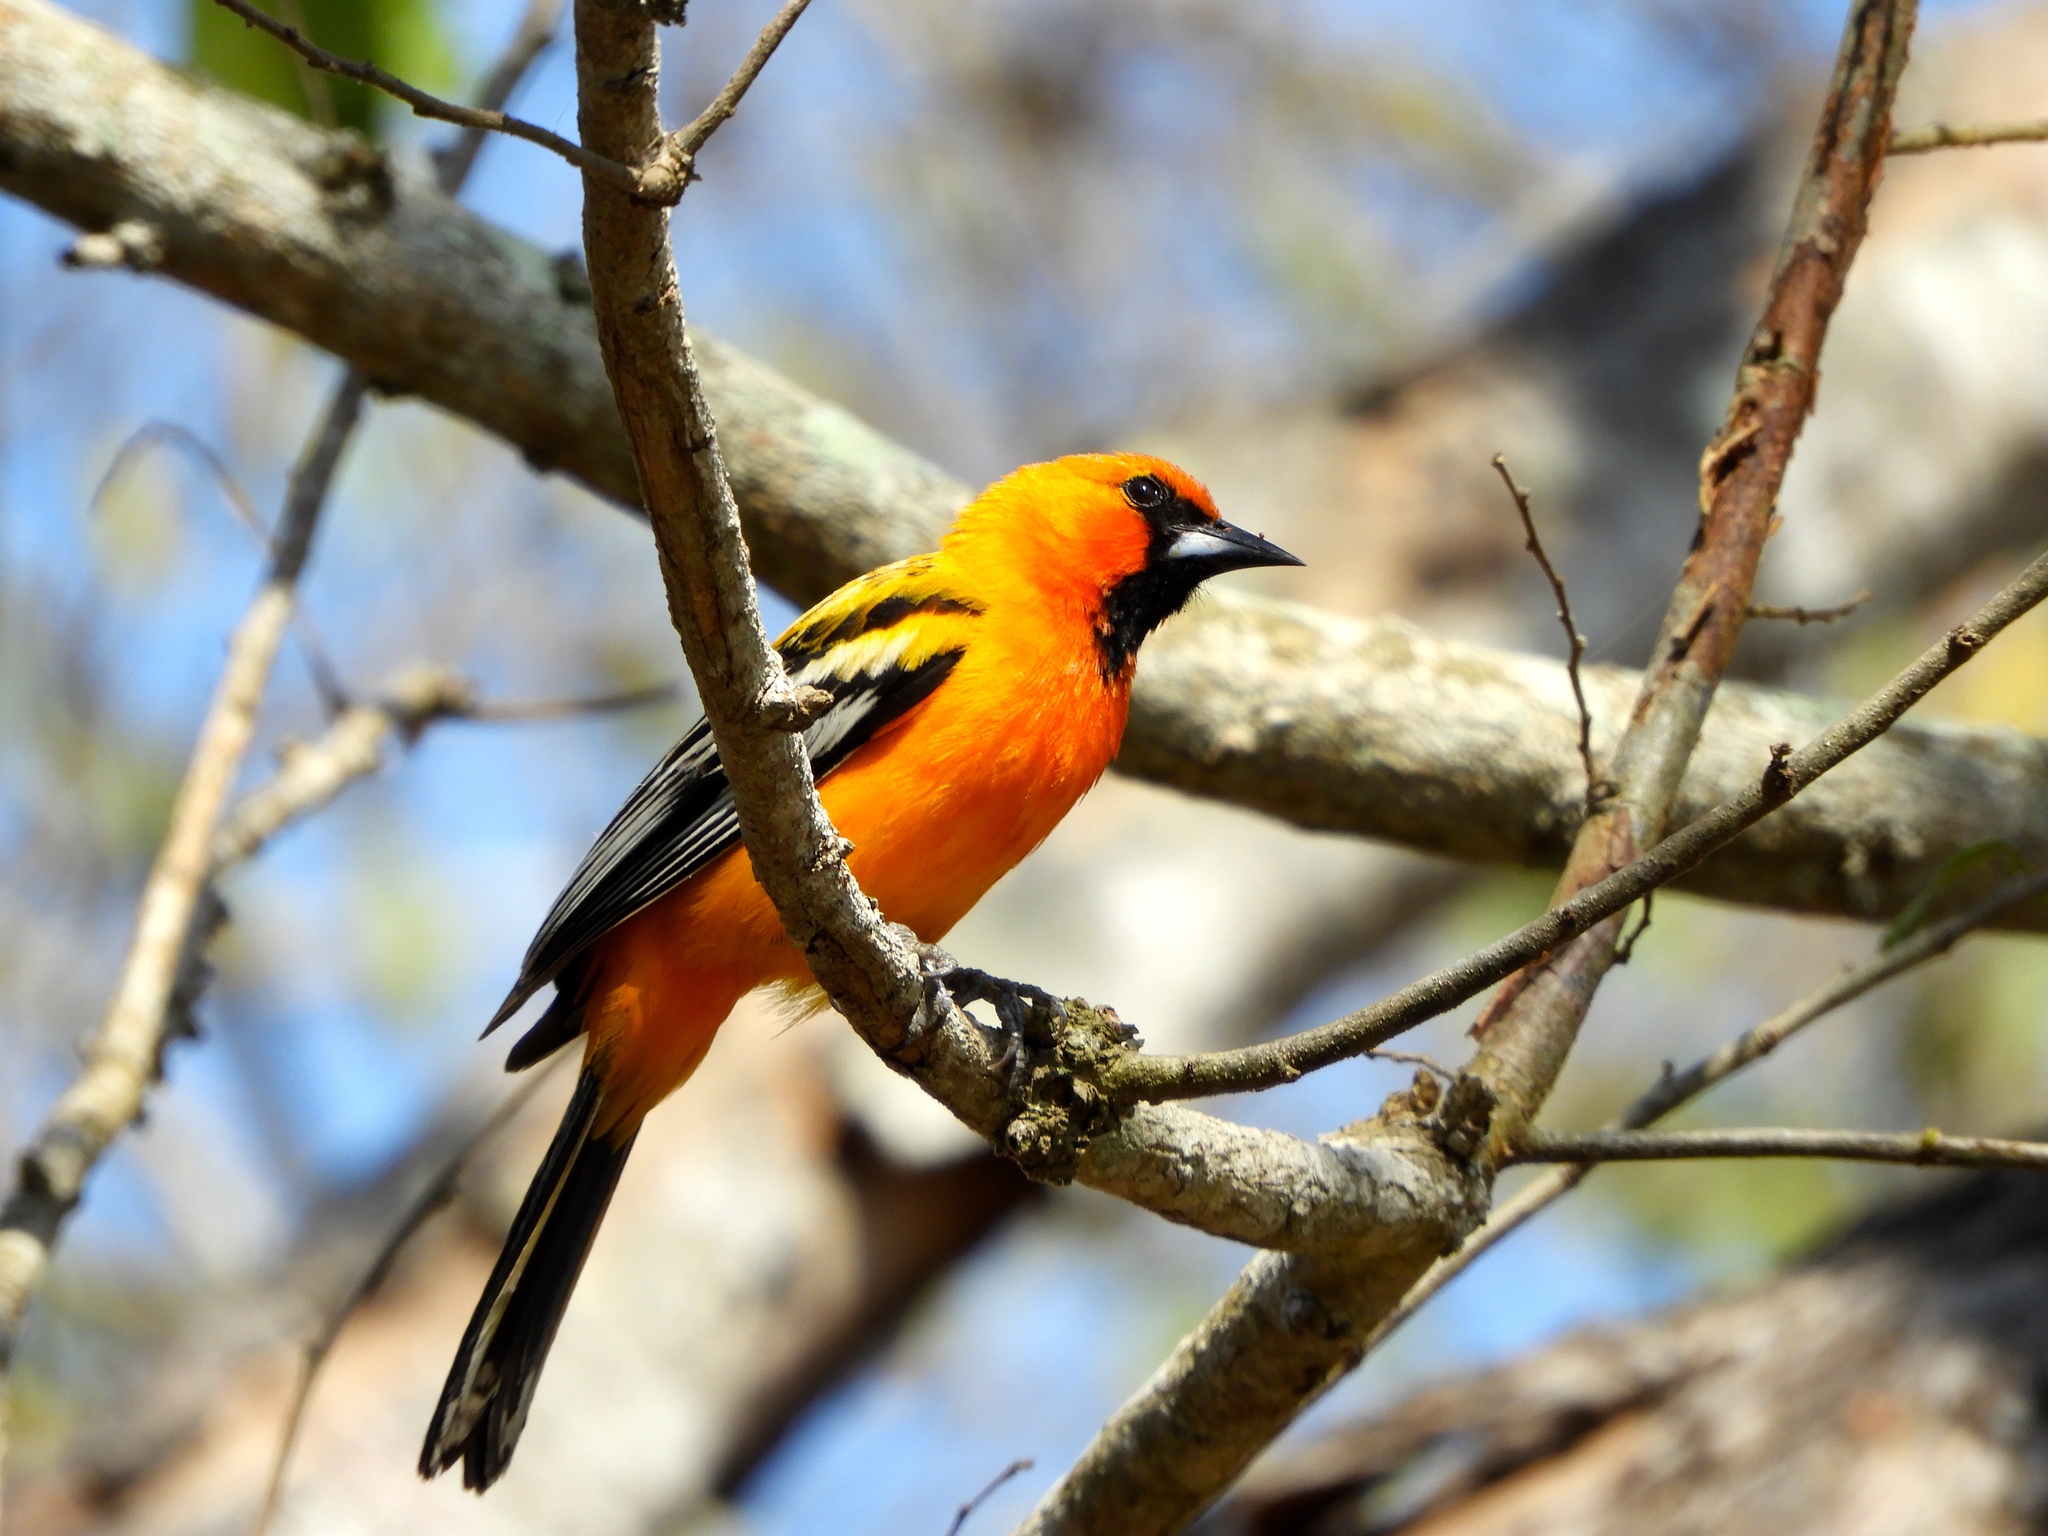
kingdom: Animalia
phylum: Chordata
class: Aves
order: Passeriformes
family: Icteridae
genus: Icterus
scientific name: Icterus pustulatus
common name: Streak-backed oriole
